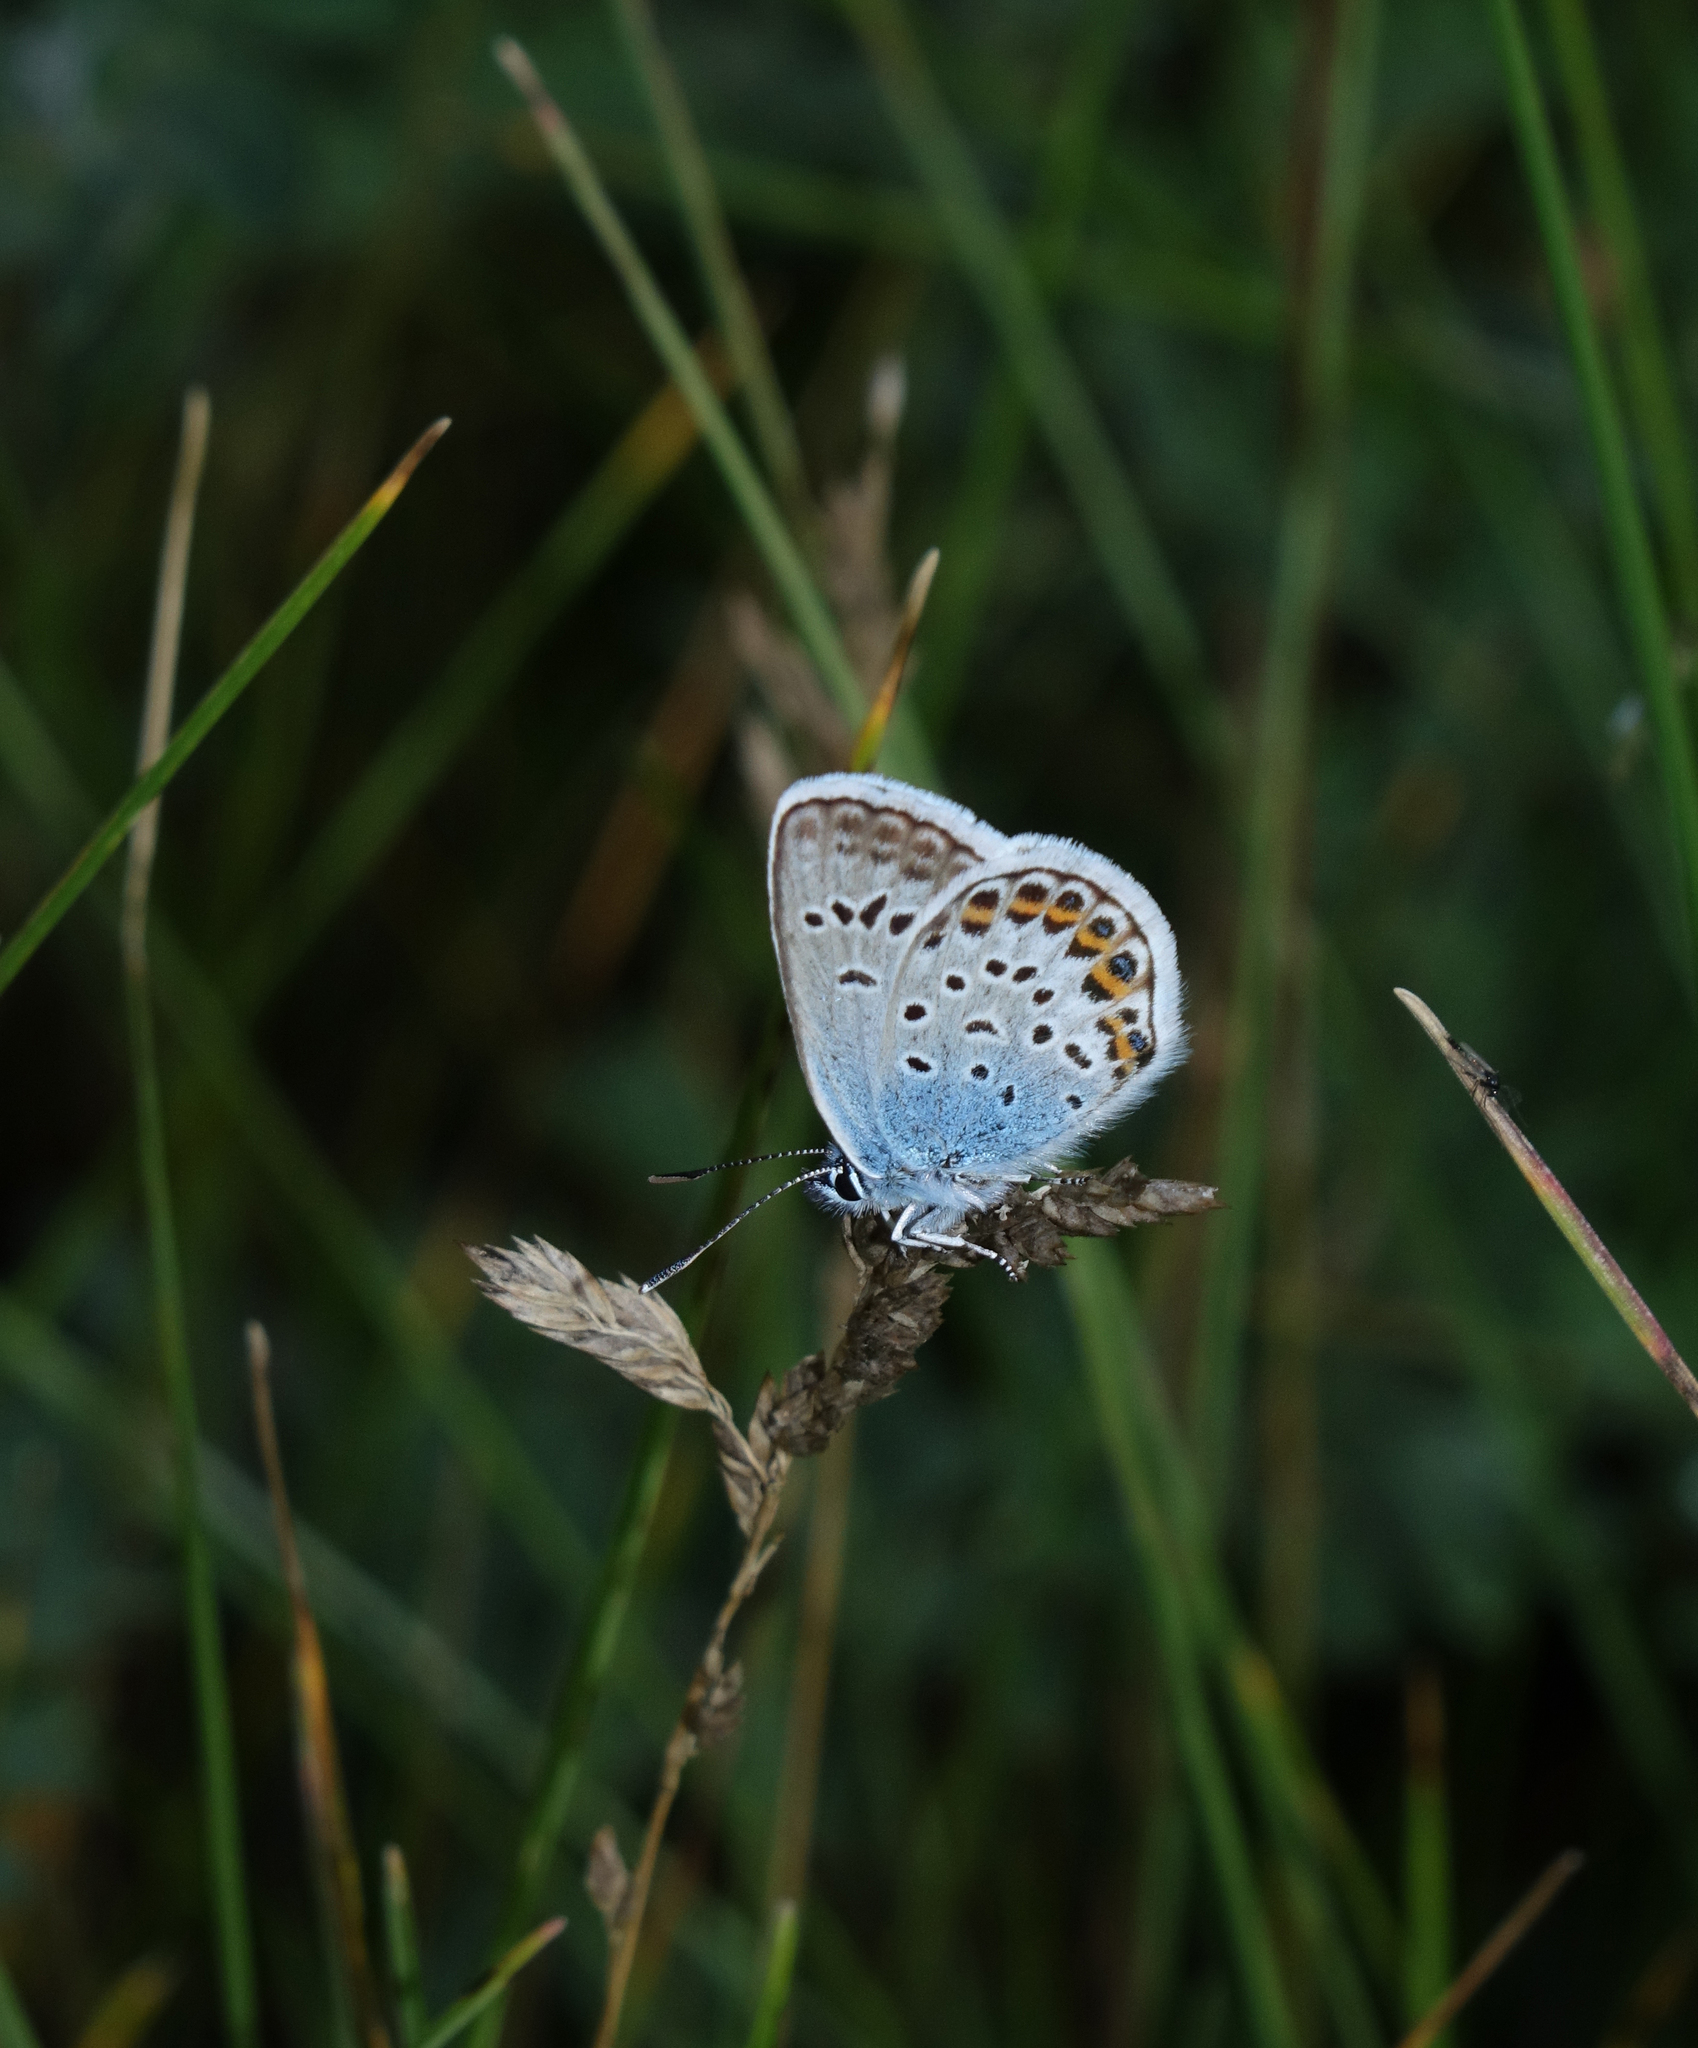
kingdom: Animalia
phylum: Arthropoda
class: Insecta
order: Lepidoptera
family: Lycaenidae
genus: Plebejus
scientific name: Plebejus argus
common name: Silver-studded blue
